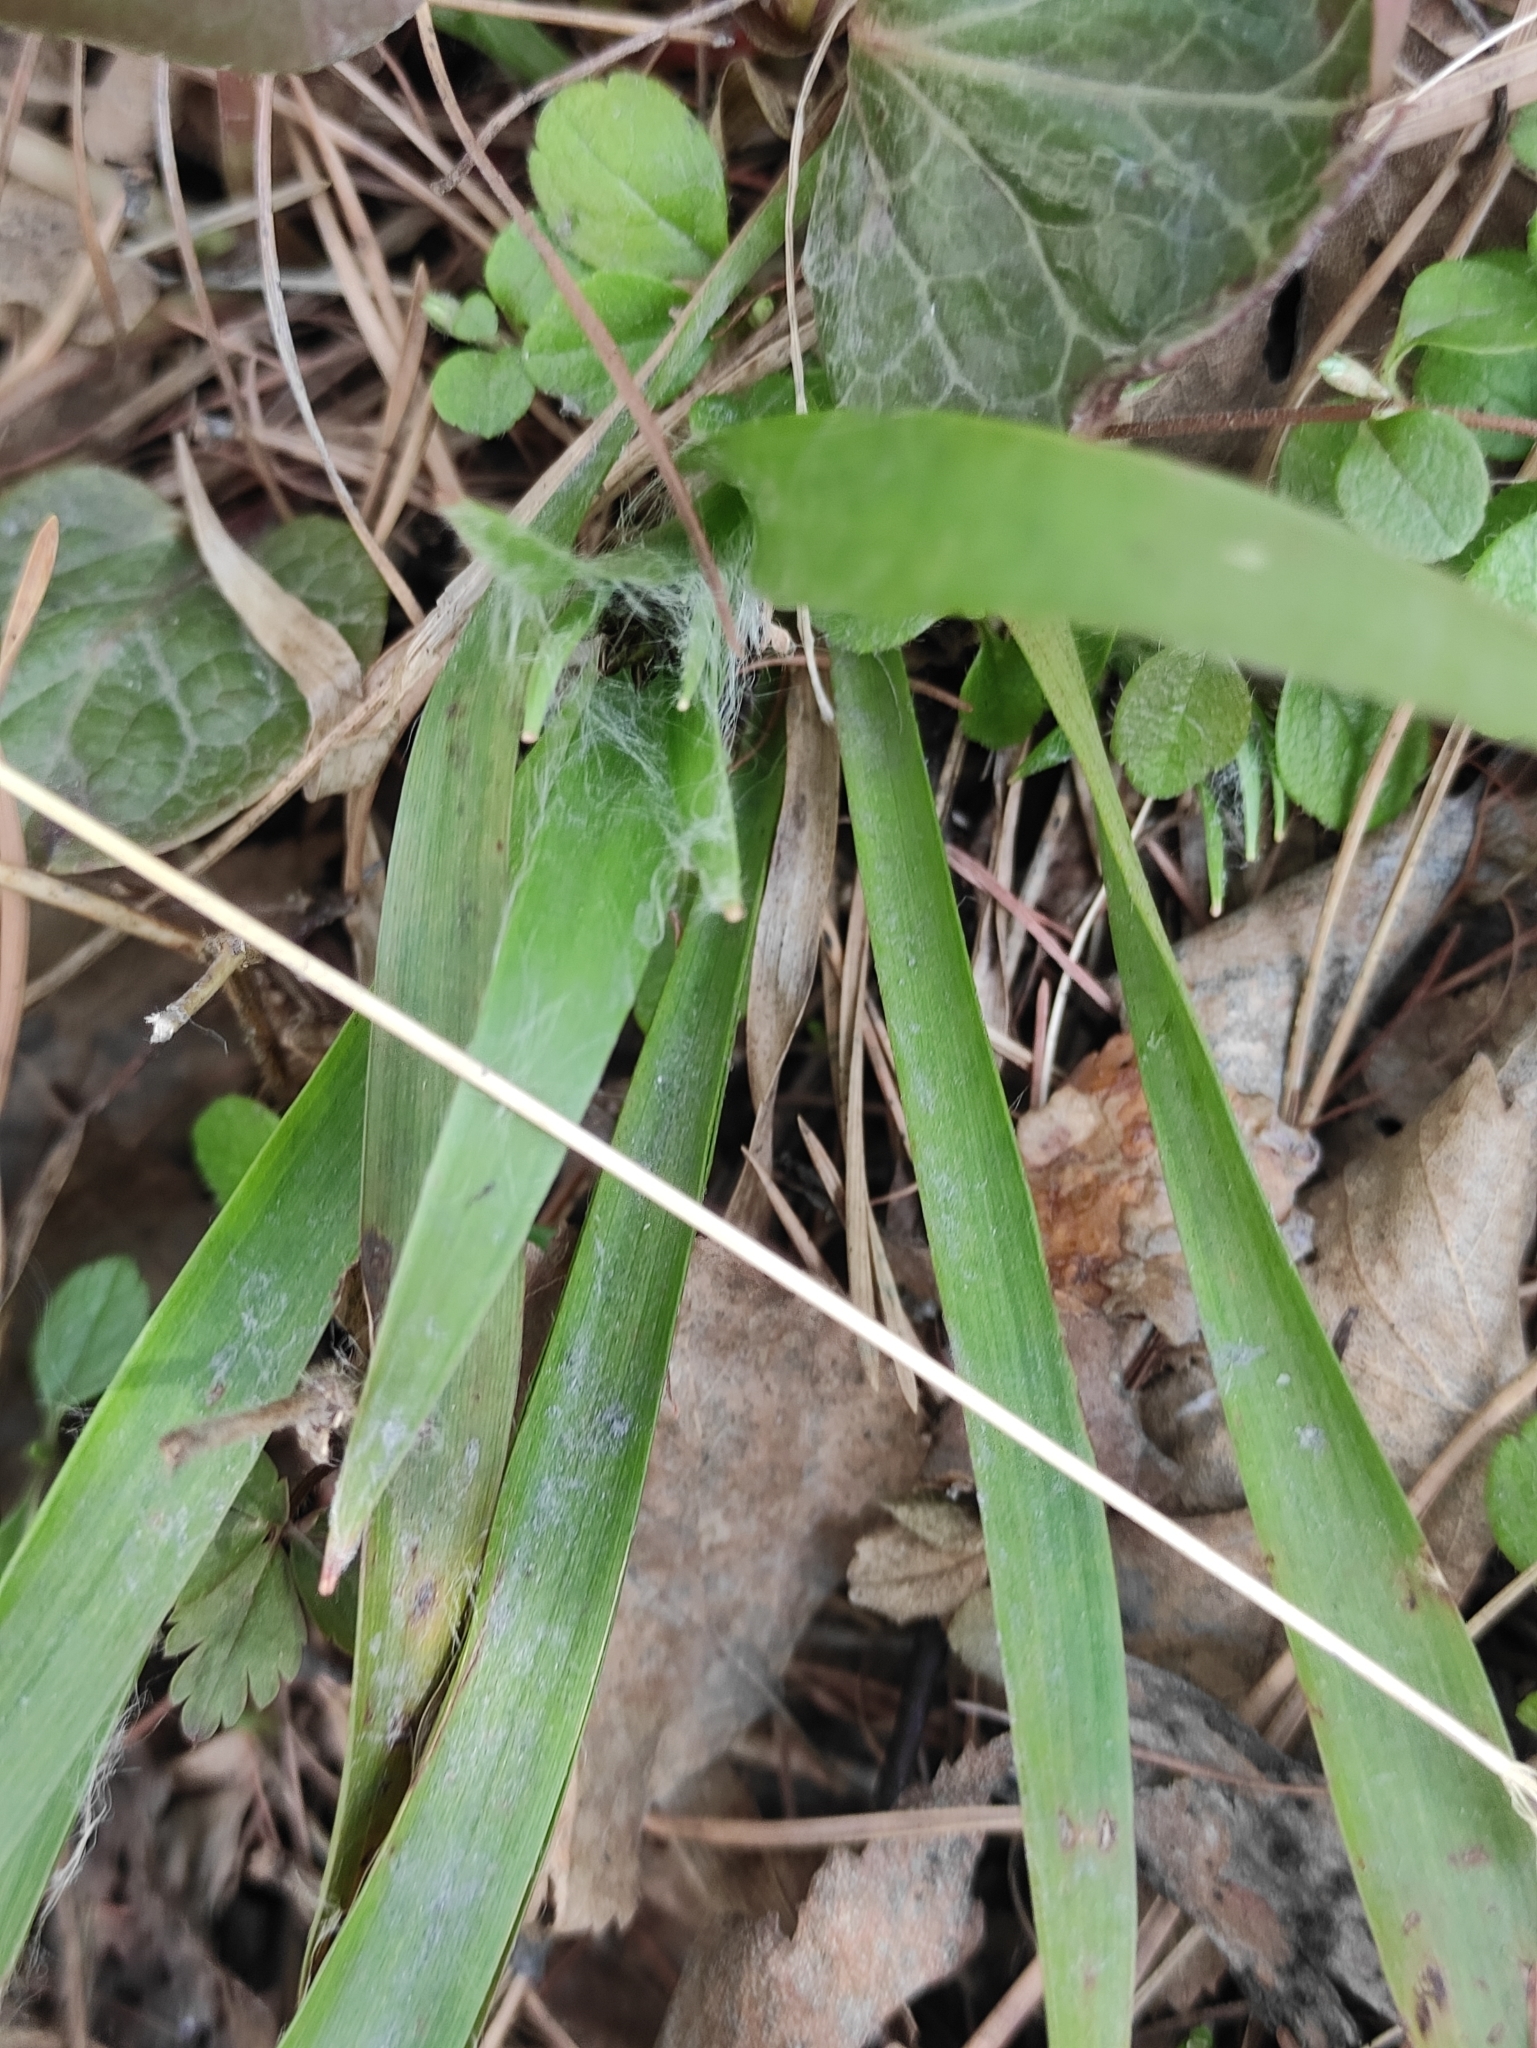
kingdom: Plantae
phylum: Tracheophyta
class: Liliopsida
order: Poales
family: Juncaceae
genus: Luzula
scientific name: Luzula pilosa
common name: Hairy wood-rush
